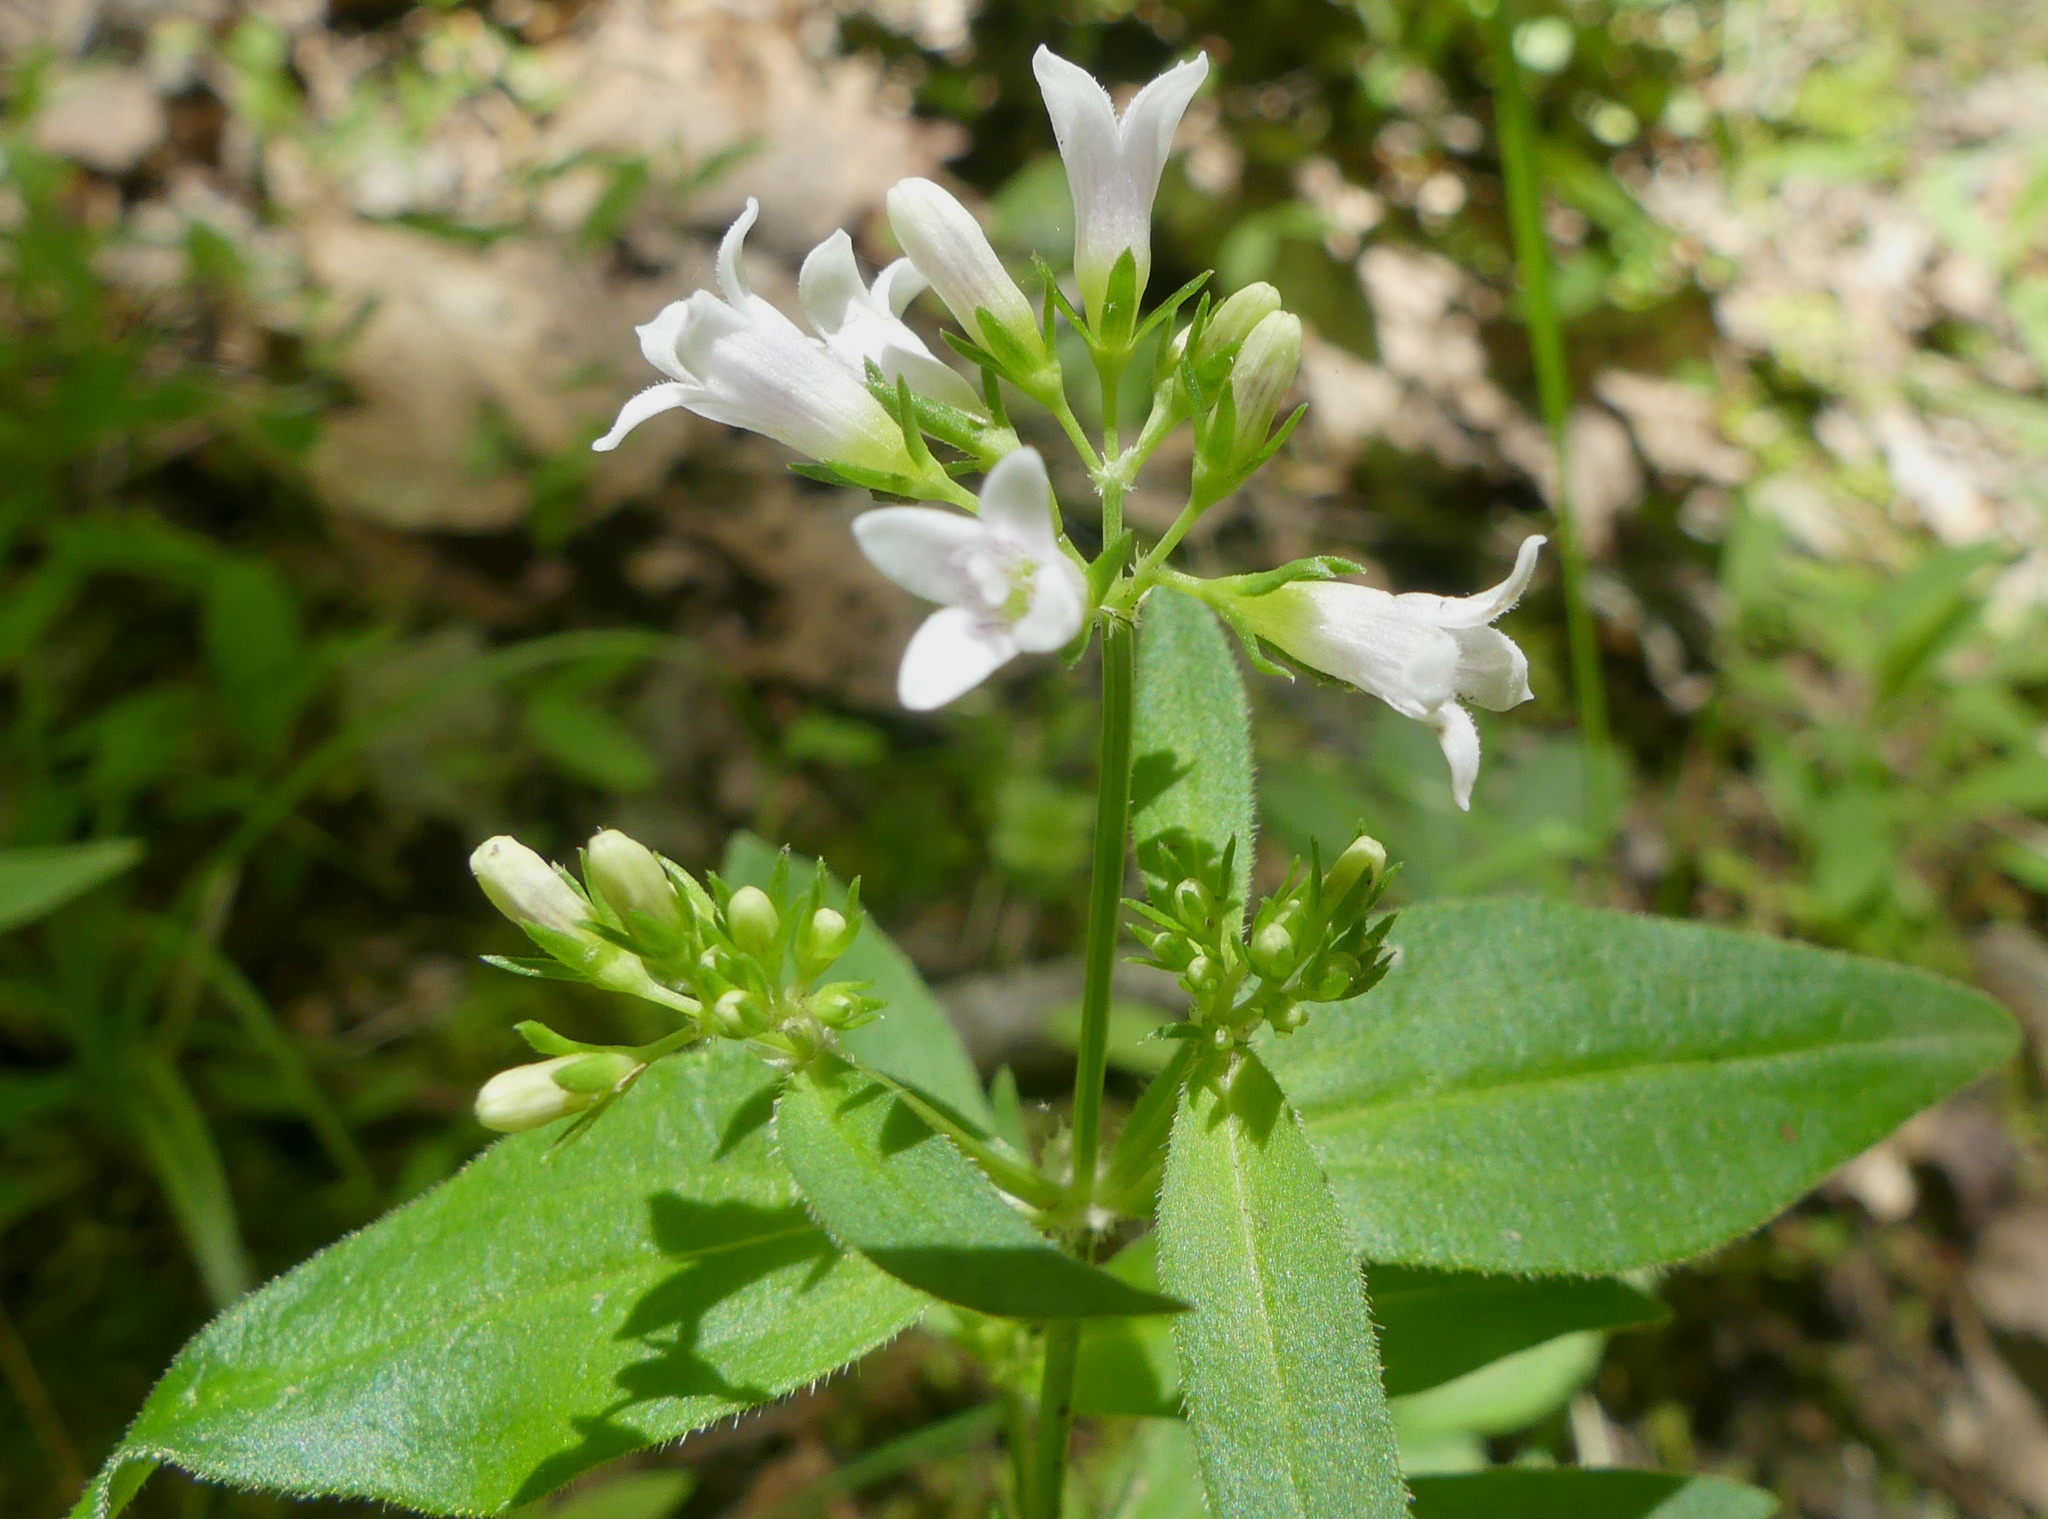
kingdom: Plantae
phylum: Tracheophyta
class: Magnoliopsida
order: Gentianales
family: Rubiaceae
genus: Houstonia
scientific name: Houstonia purpurea
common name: Summer bluet
